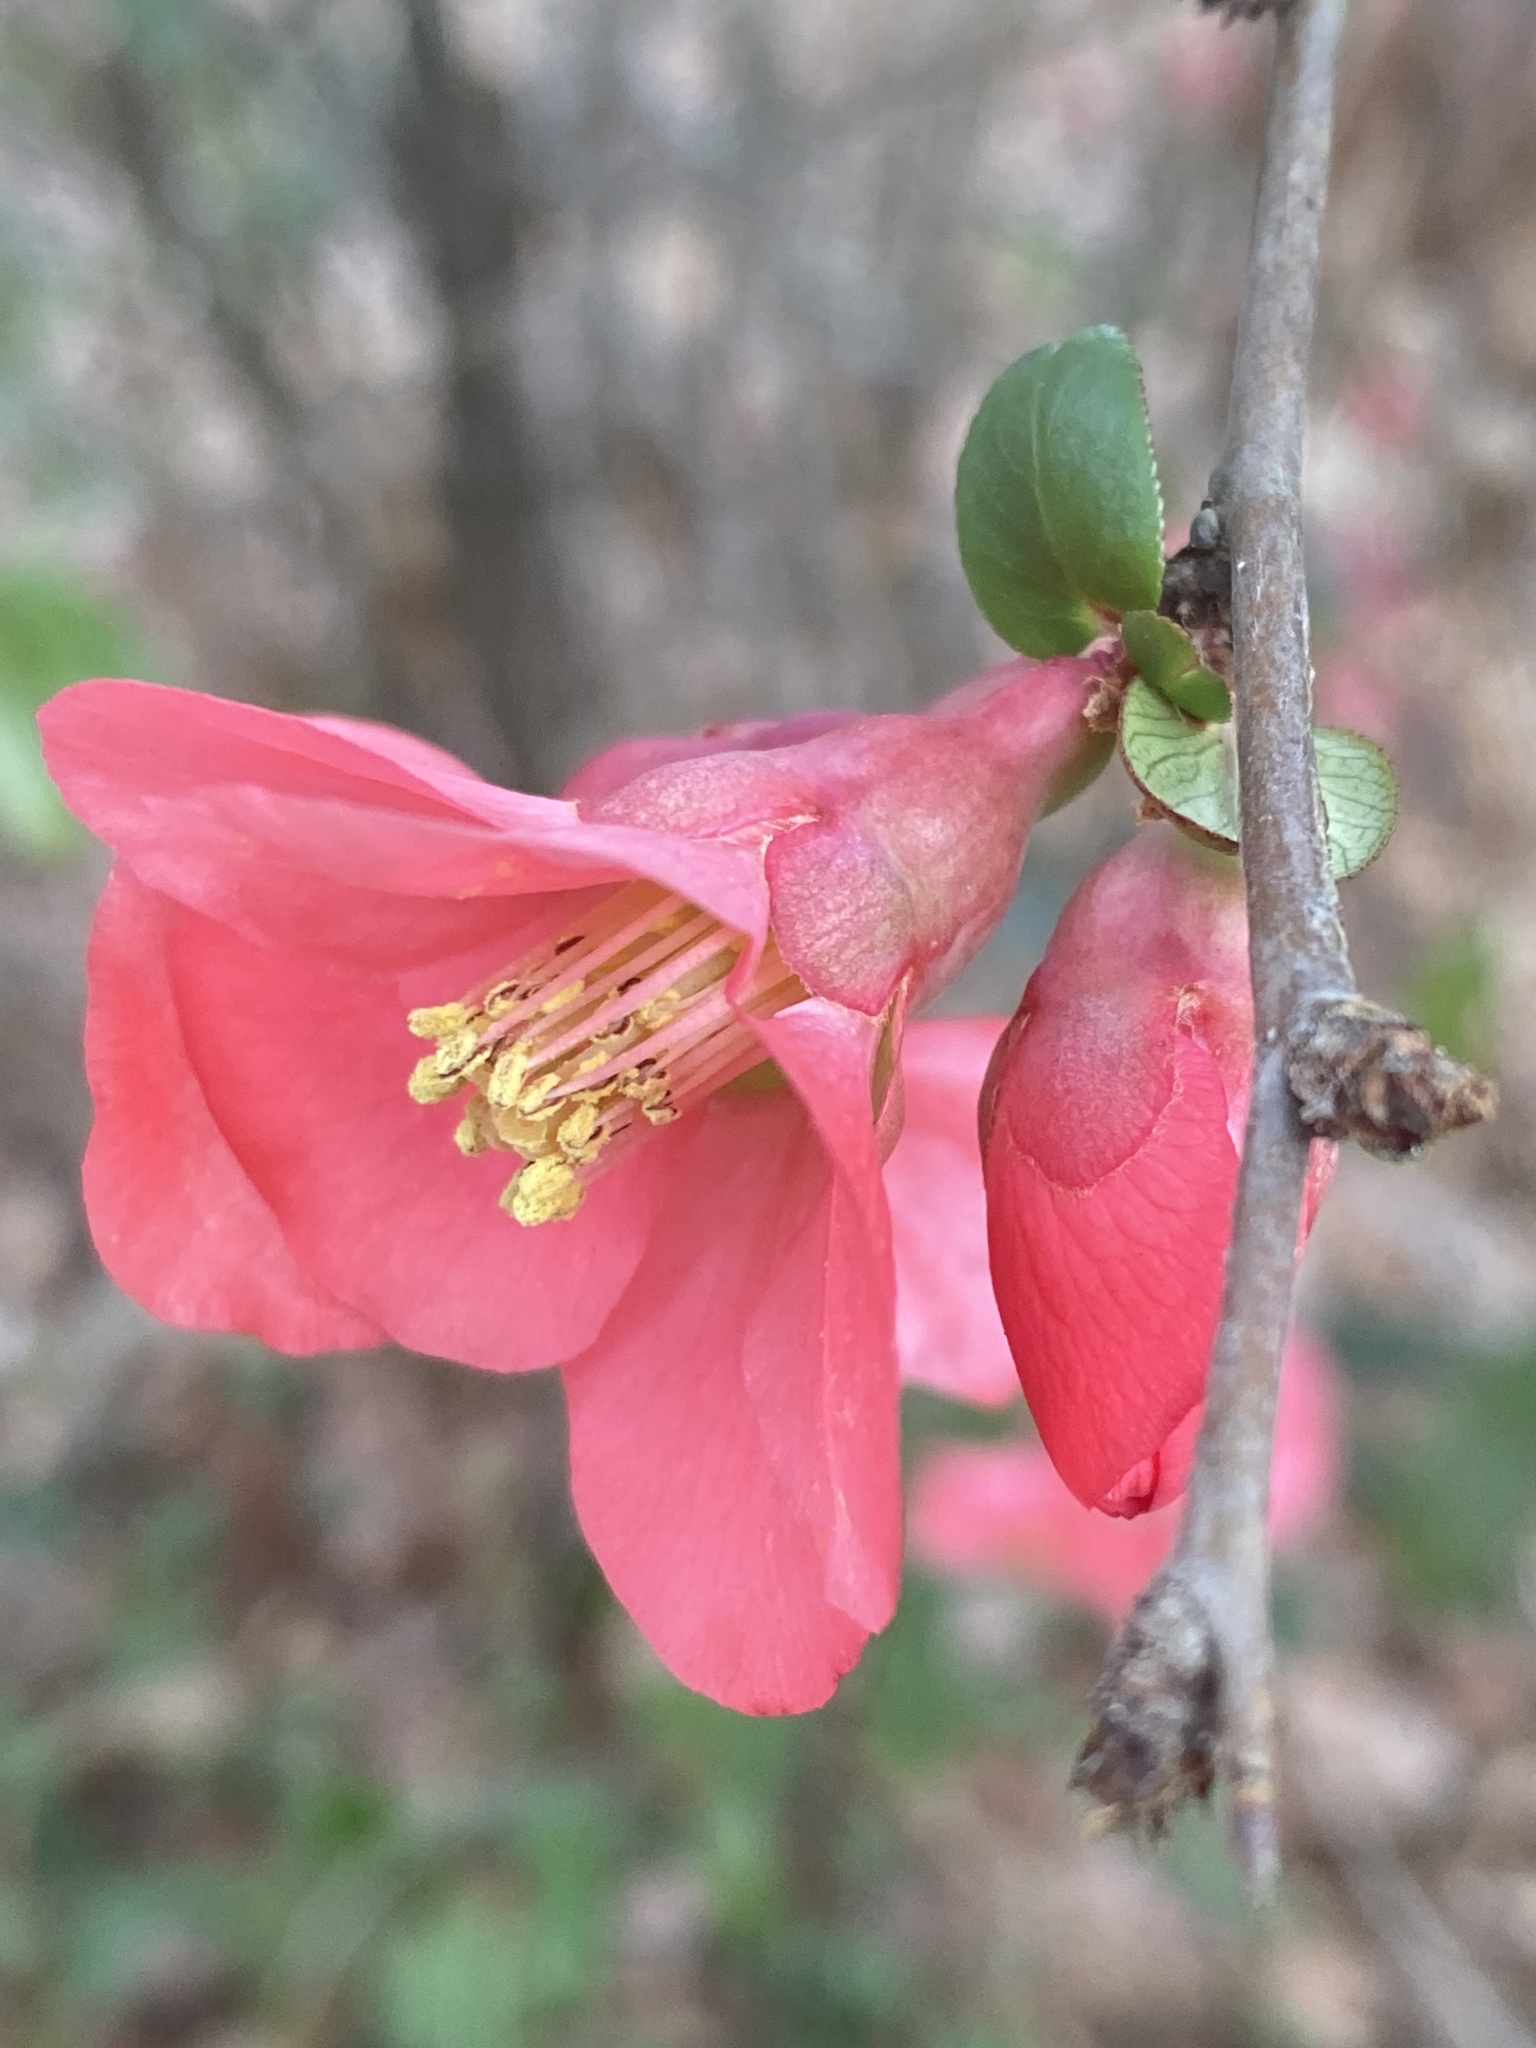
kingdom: Plantae
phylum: Tracheophyta
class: Magnoliopsida
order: Rosales
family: Rosaceae
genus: Chaenomeles
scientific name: Chaenomeles speciosa
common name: Japanese quince
